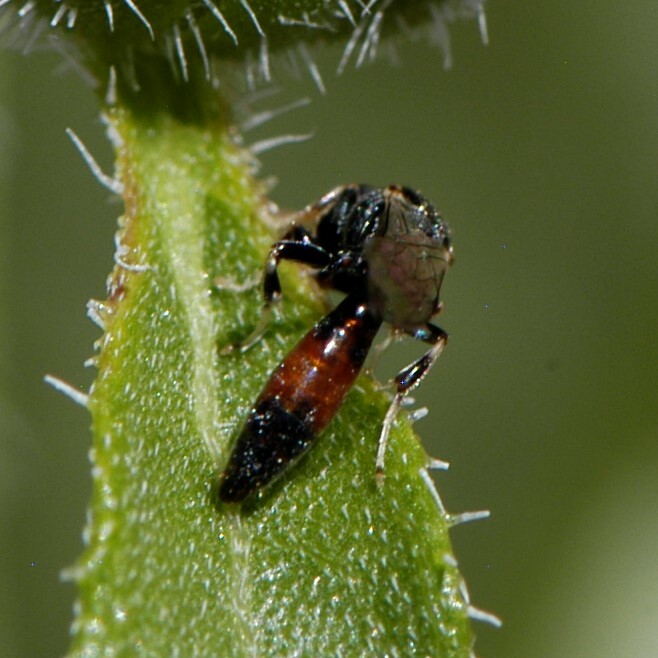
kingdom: Animalia
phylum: Arthropoda
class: Insecta
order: Hymenoptera
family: Crabronidae
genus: Mimesa
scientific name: Mimesa
